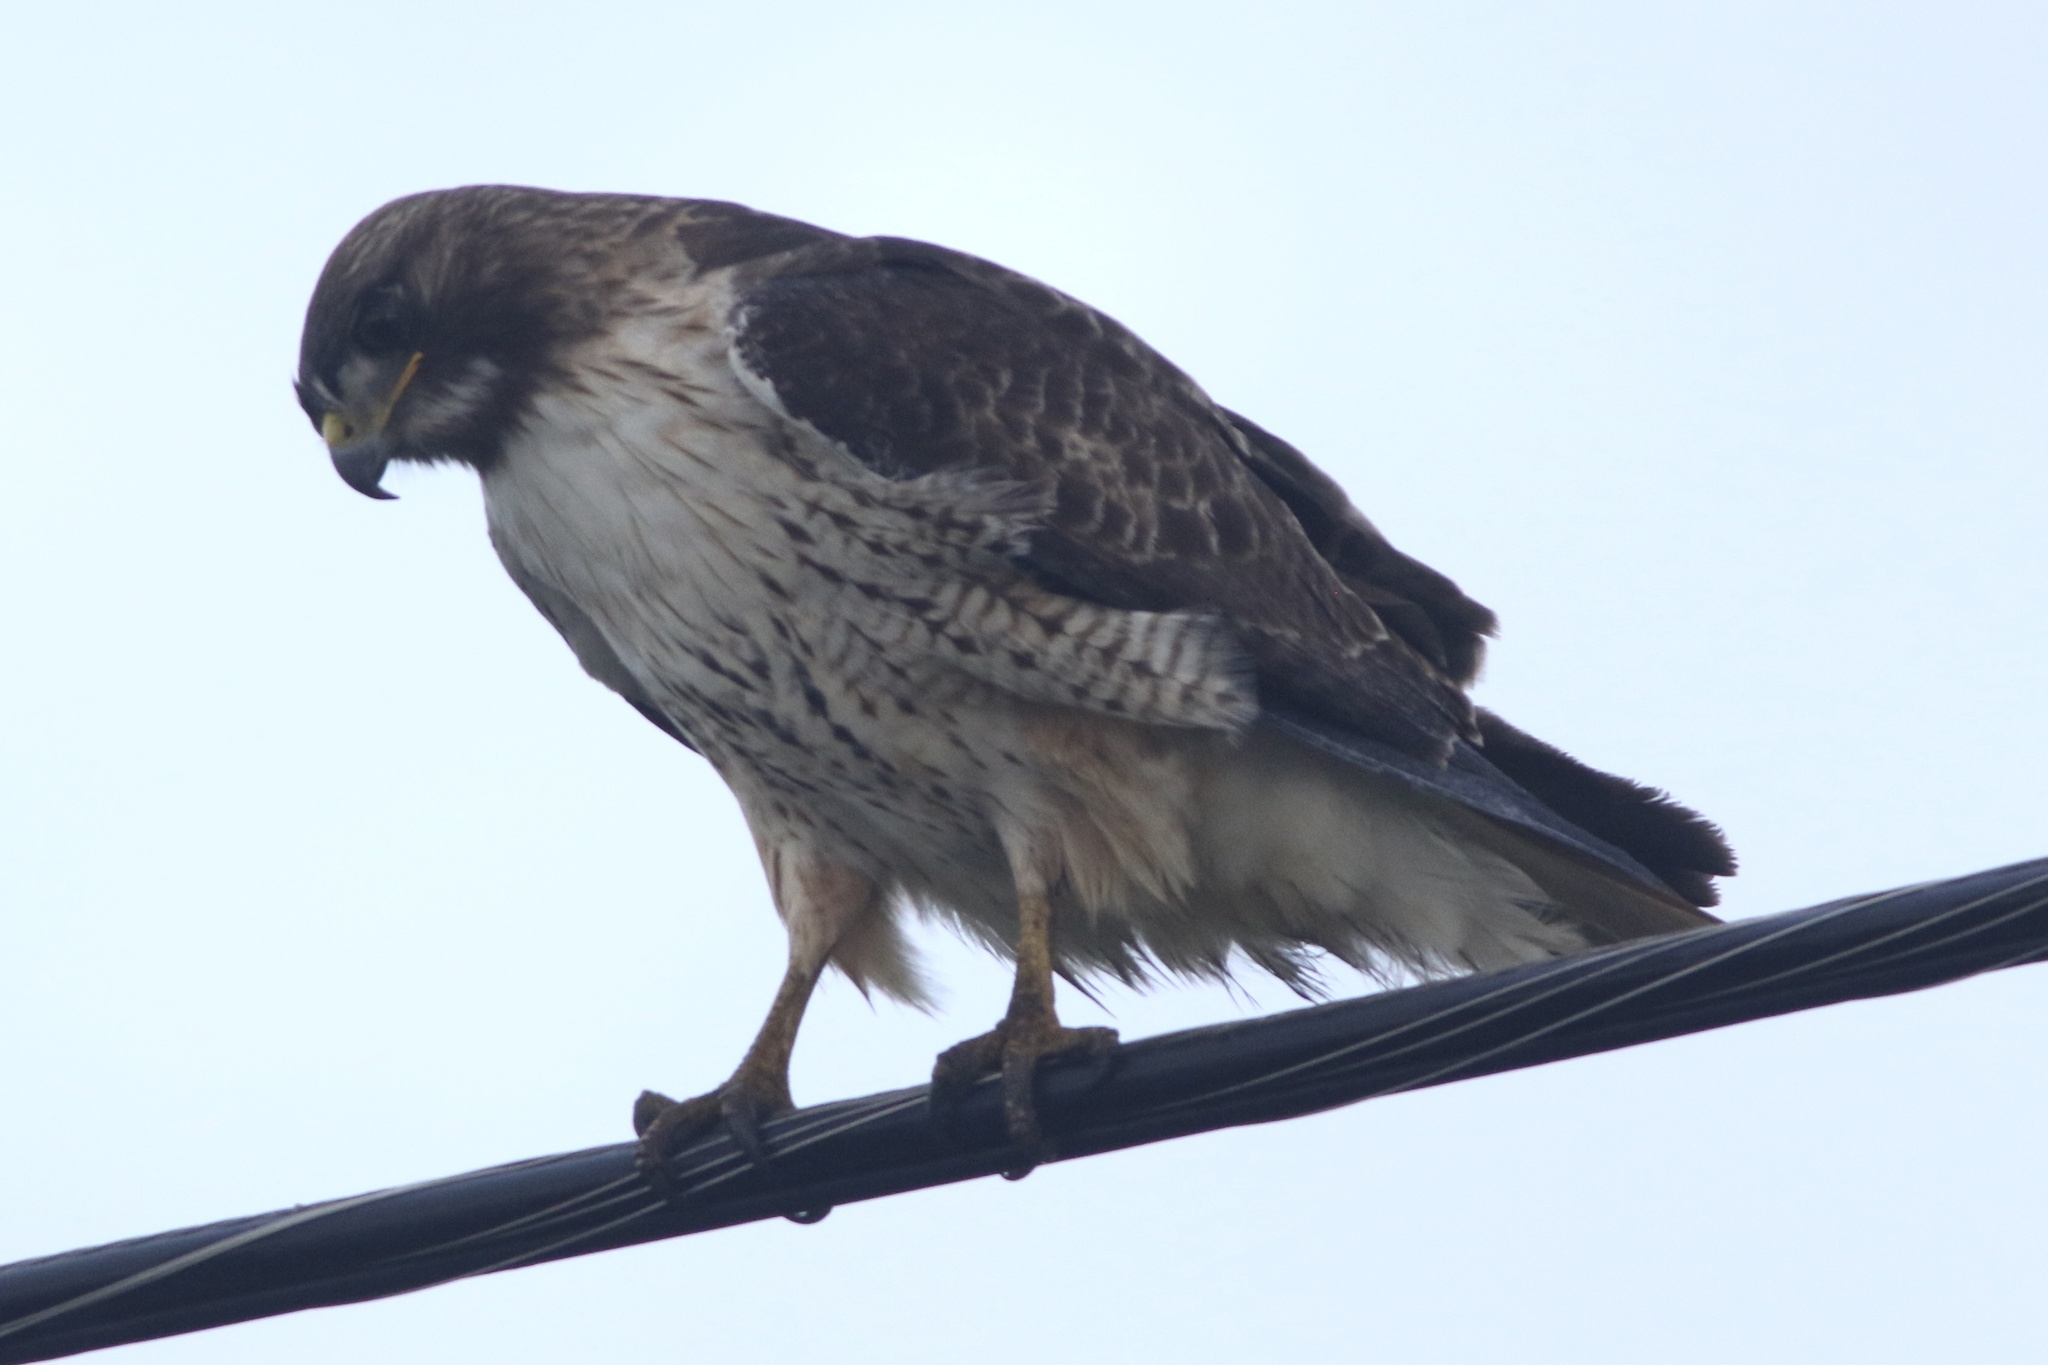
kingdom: Animalia
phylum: Chordata
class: Aves
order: Accipitriformes
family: Accipitridae
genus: Buteo
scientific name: Buteo jamaicensis
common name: Red-tailed hawk
